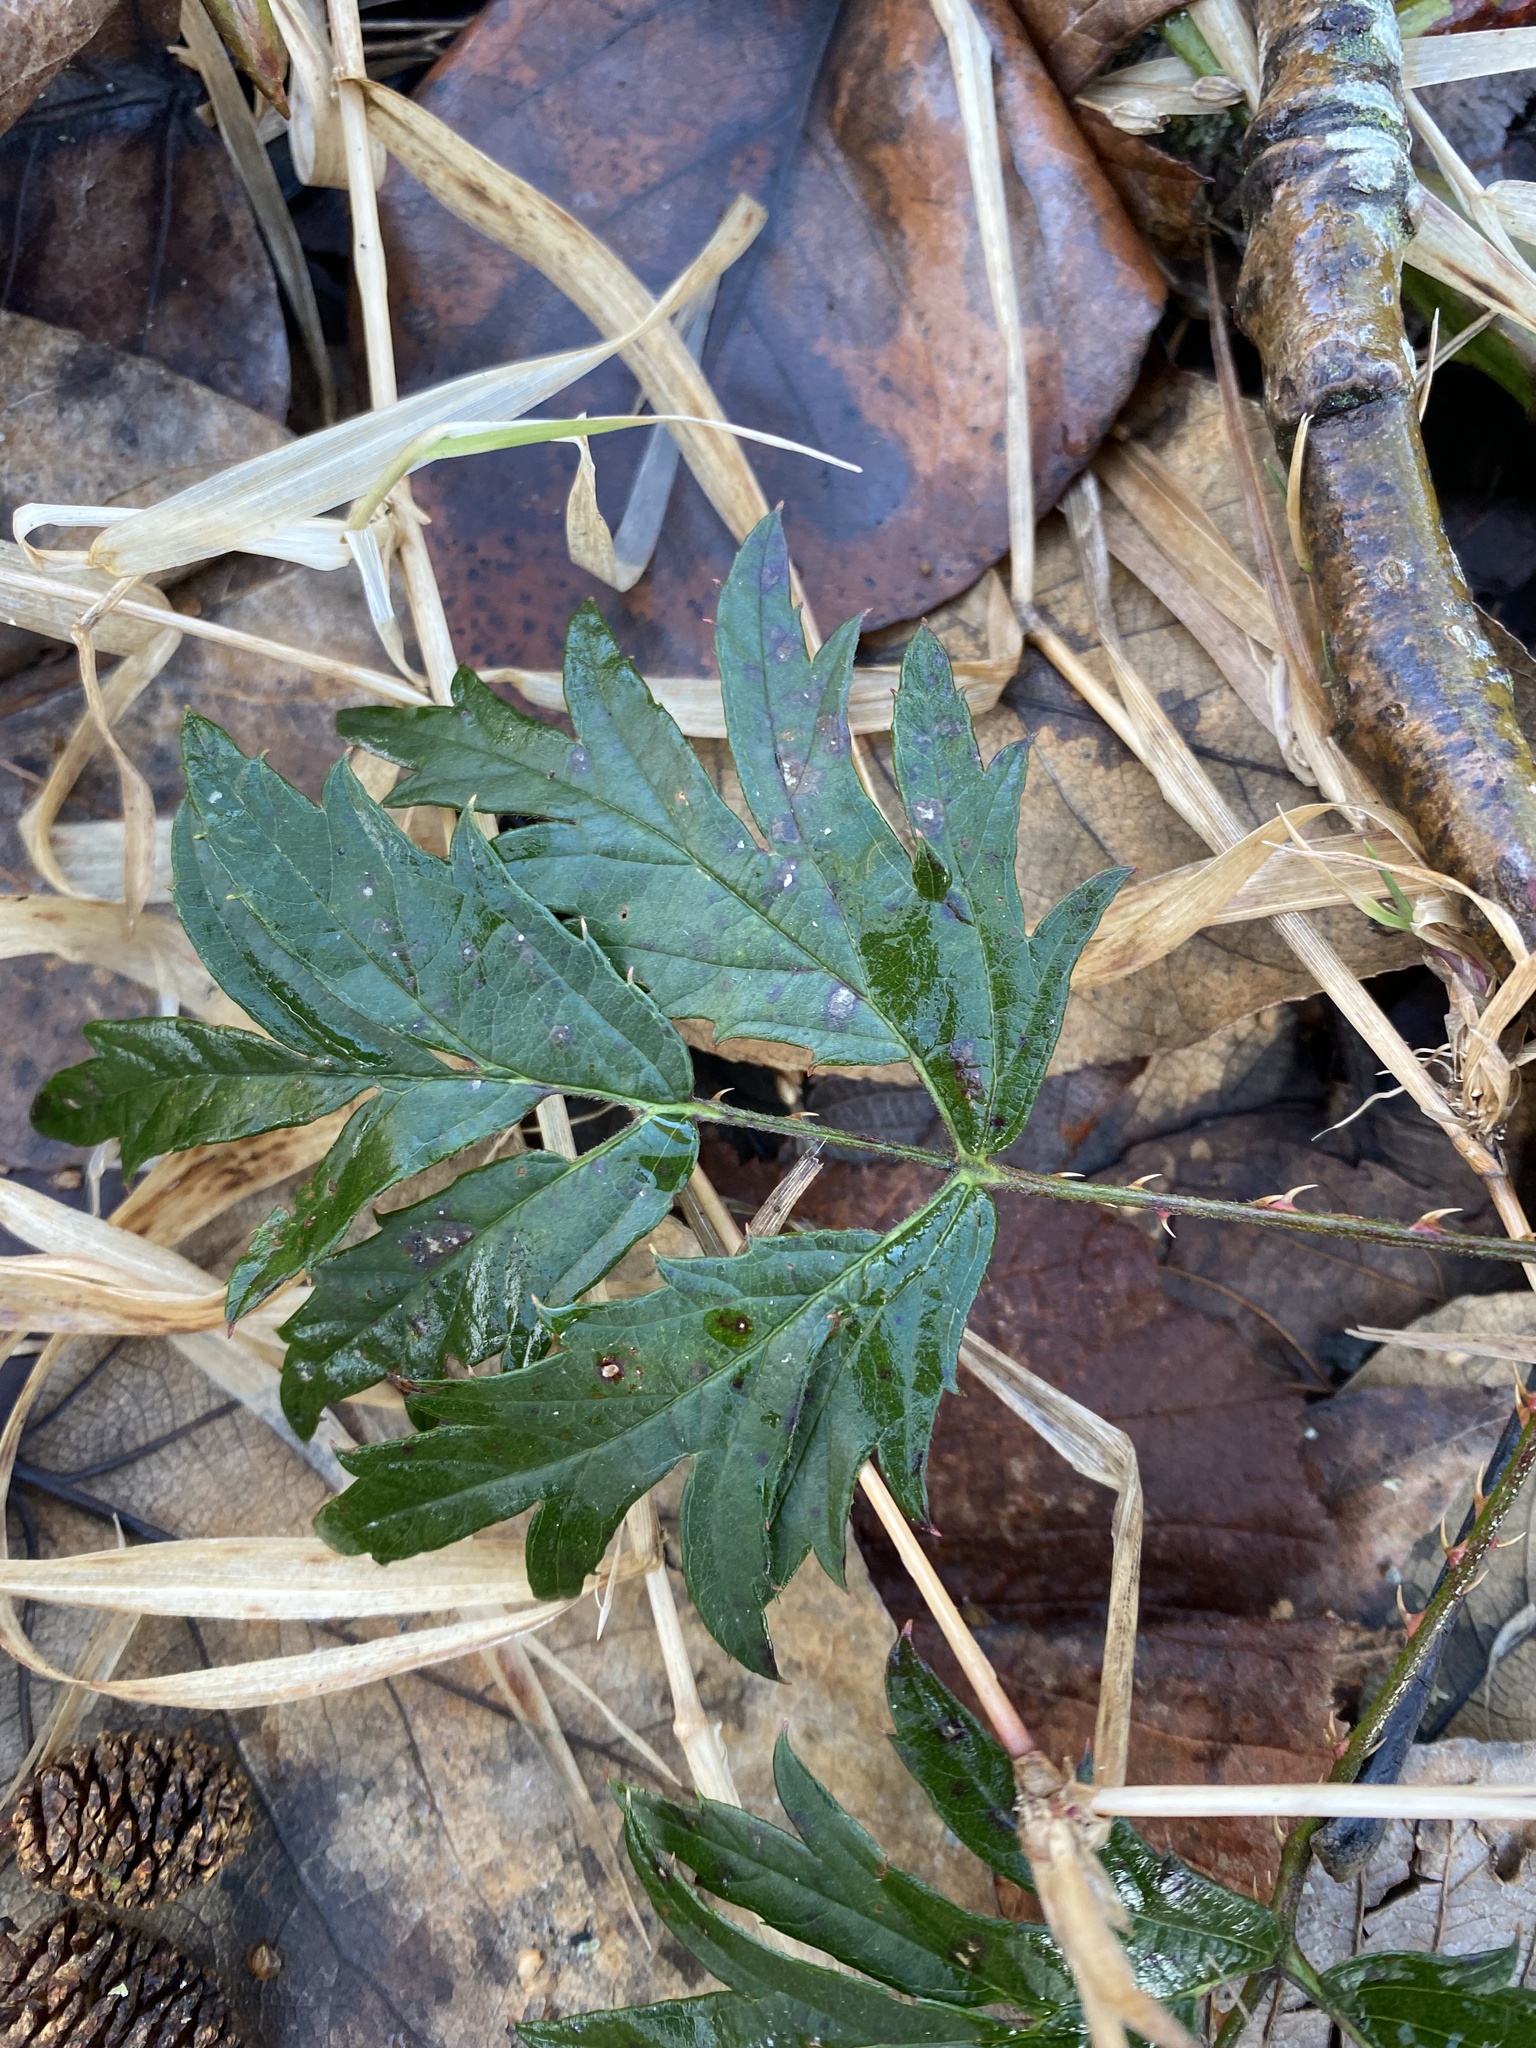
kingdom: Plantae
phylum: Tracheophyta
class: Magnoliopsida
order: Rosales
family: Rosaceae
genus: Rubus
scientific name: Rubus laciniatus
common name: Evergreen blackberry
